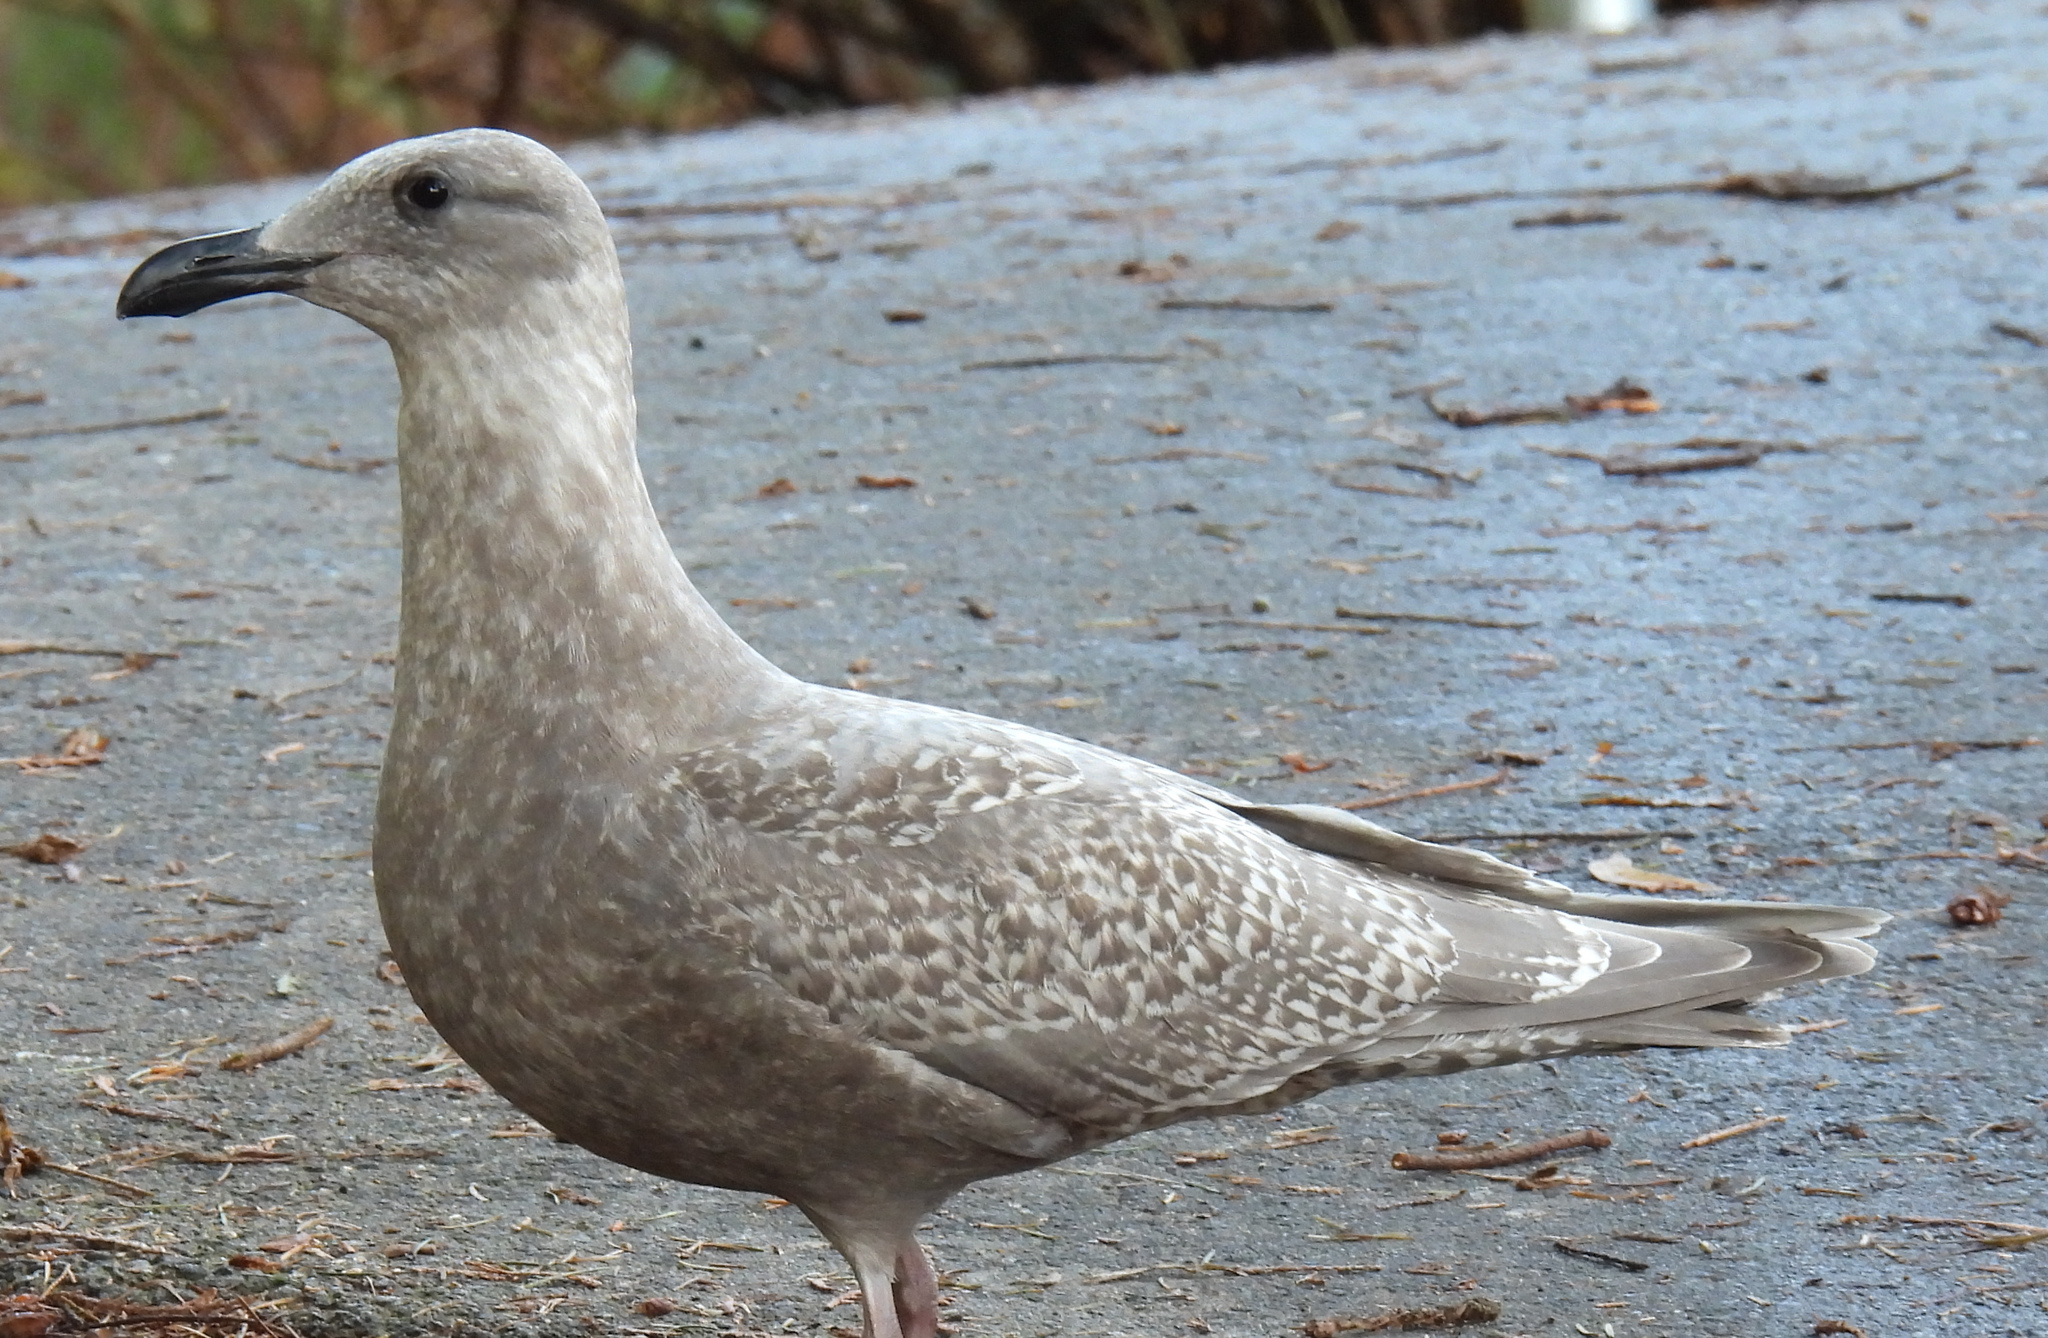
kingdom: Animalia
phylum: Chordata
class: Aves
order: Charadriiformes
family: Laridae
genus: Larus
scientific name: Larus glaucescens
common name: Glaucous-winged gull
